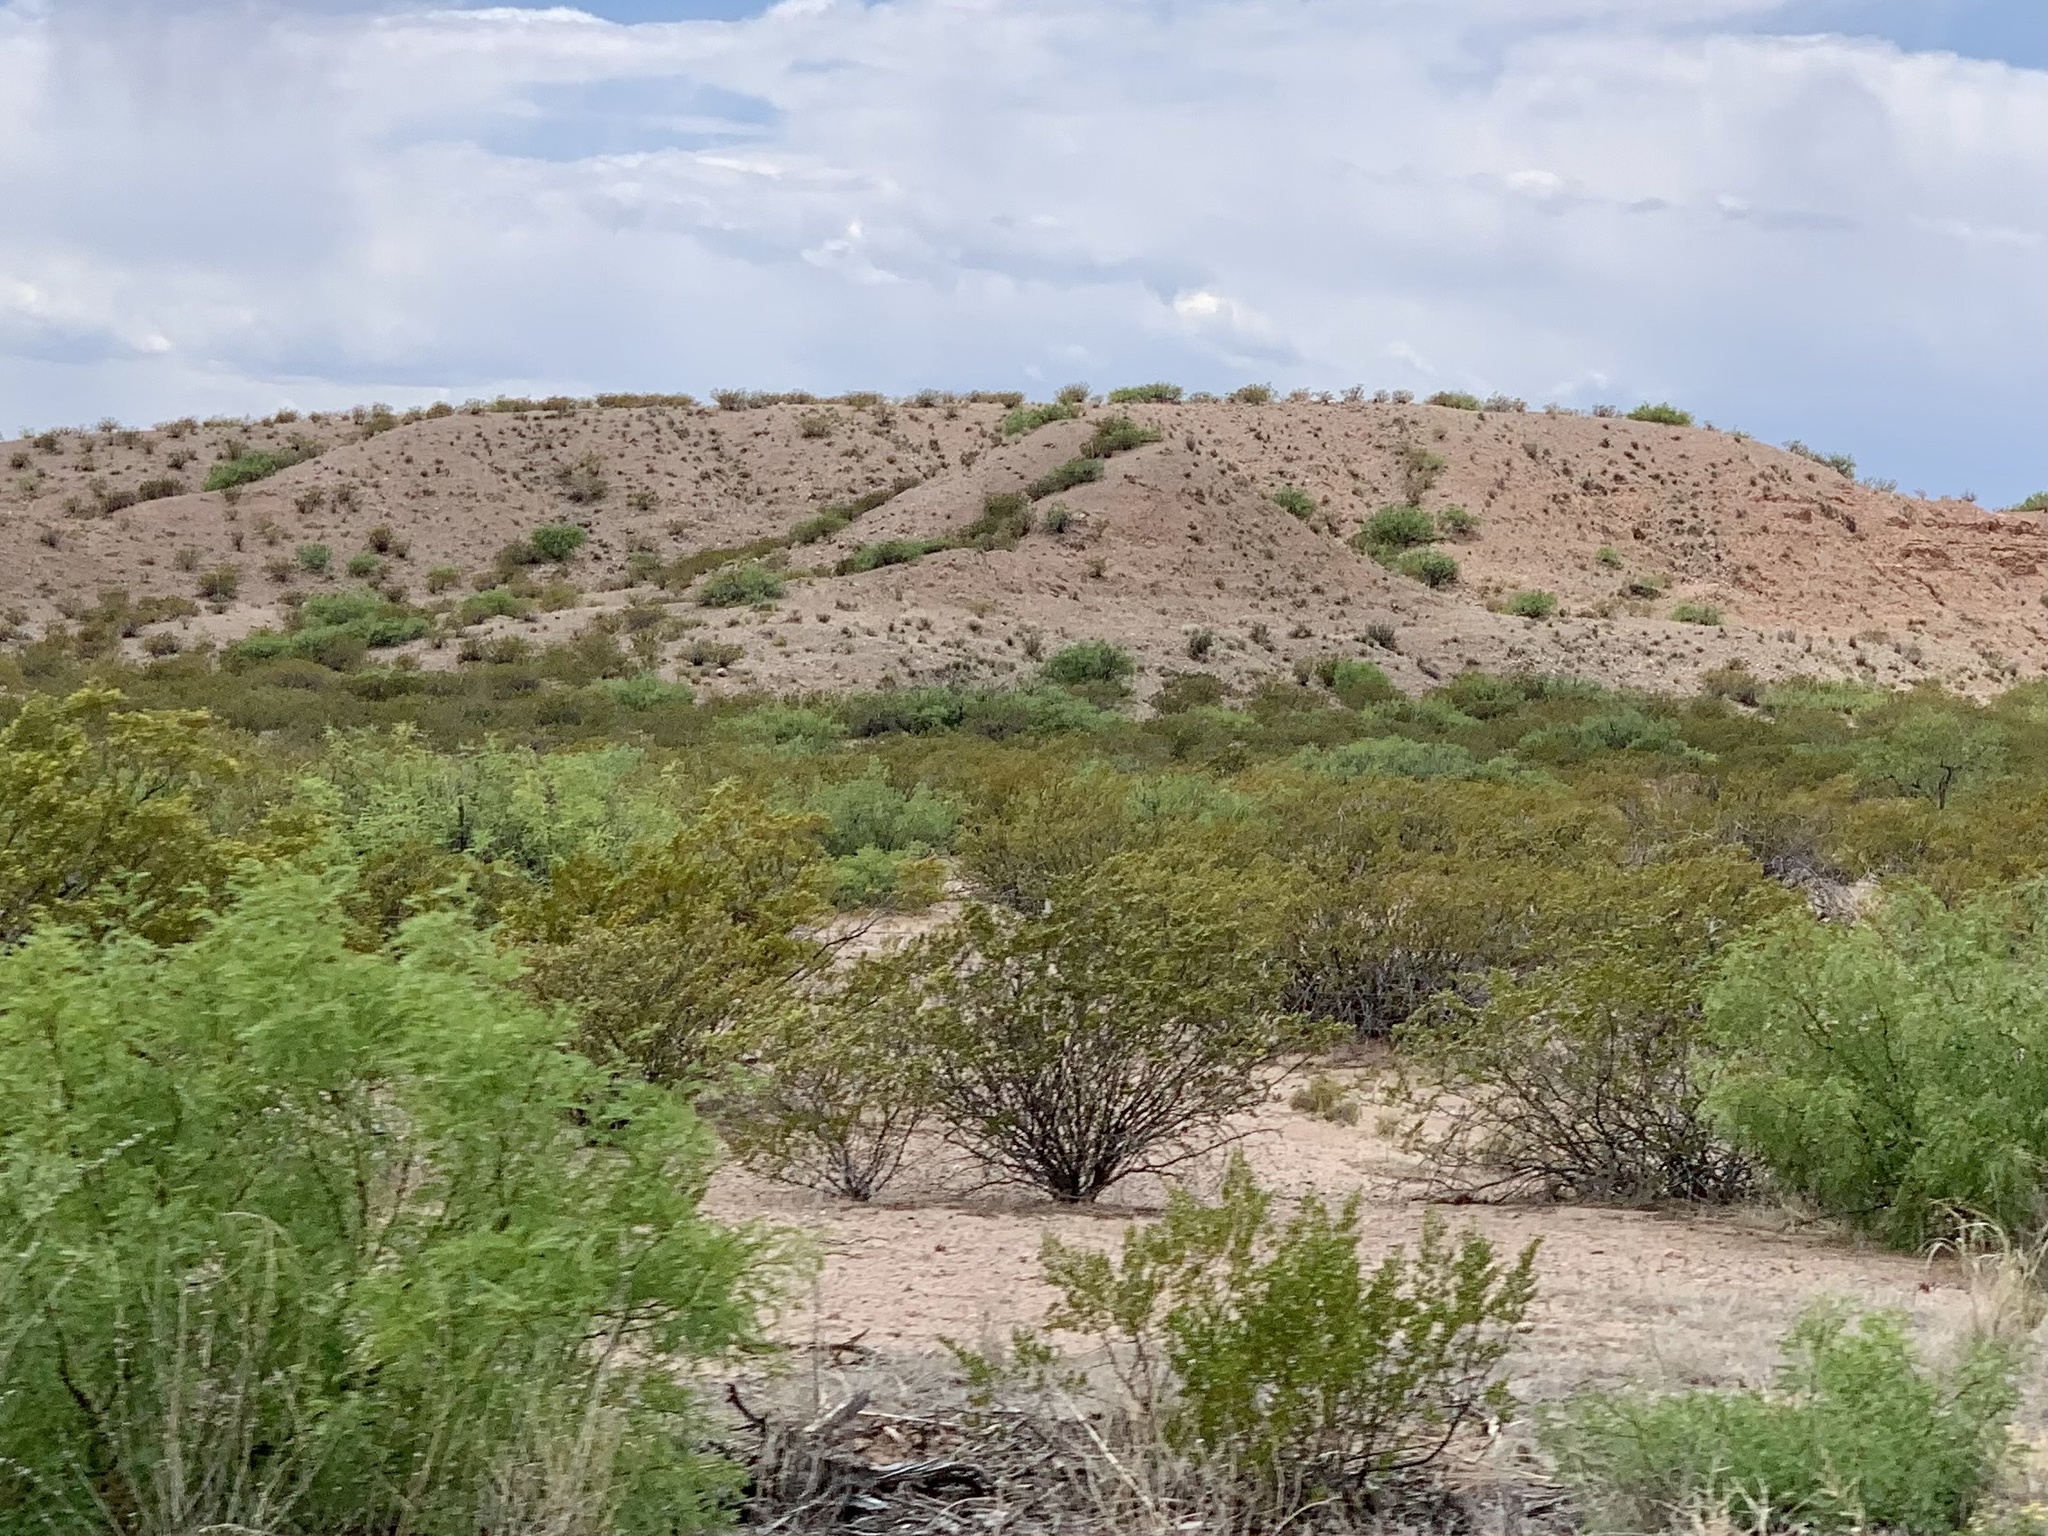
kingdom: Plantae
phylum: Tracheophyta
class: Magnoliopsida
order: Zygophyllales
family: Zygophyllaceae
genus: Larrea
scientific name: Larrea tridentata
